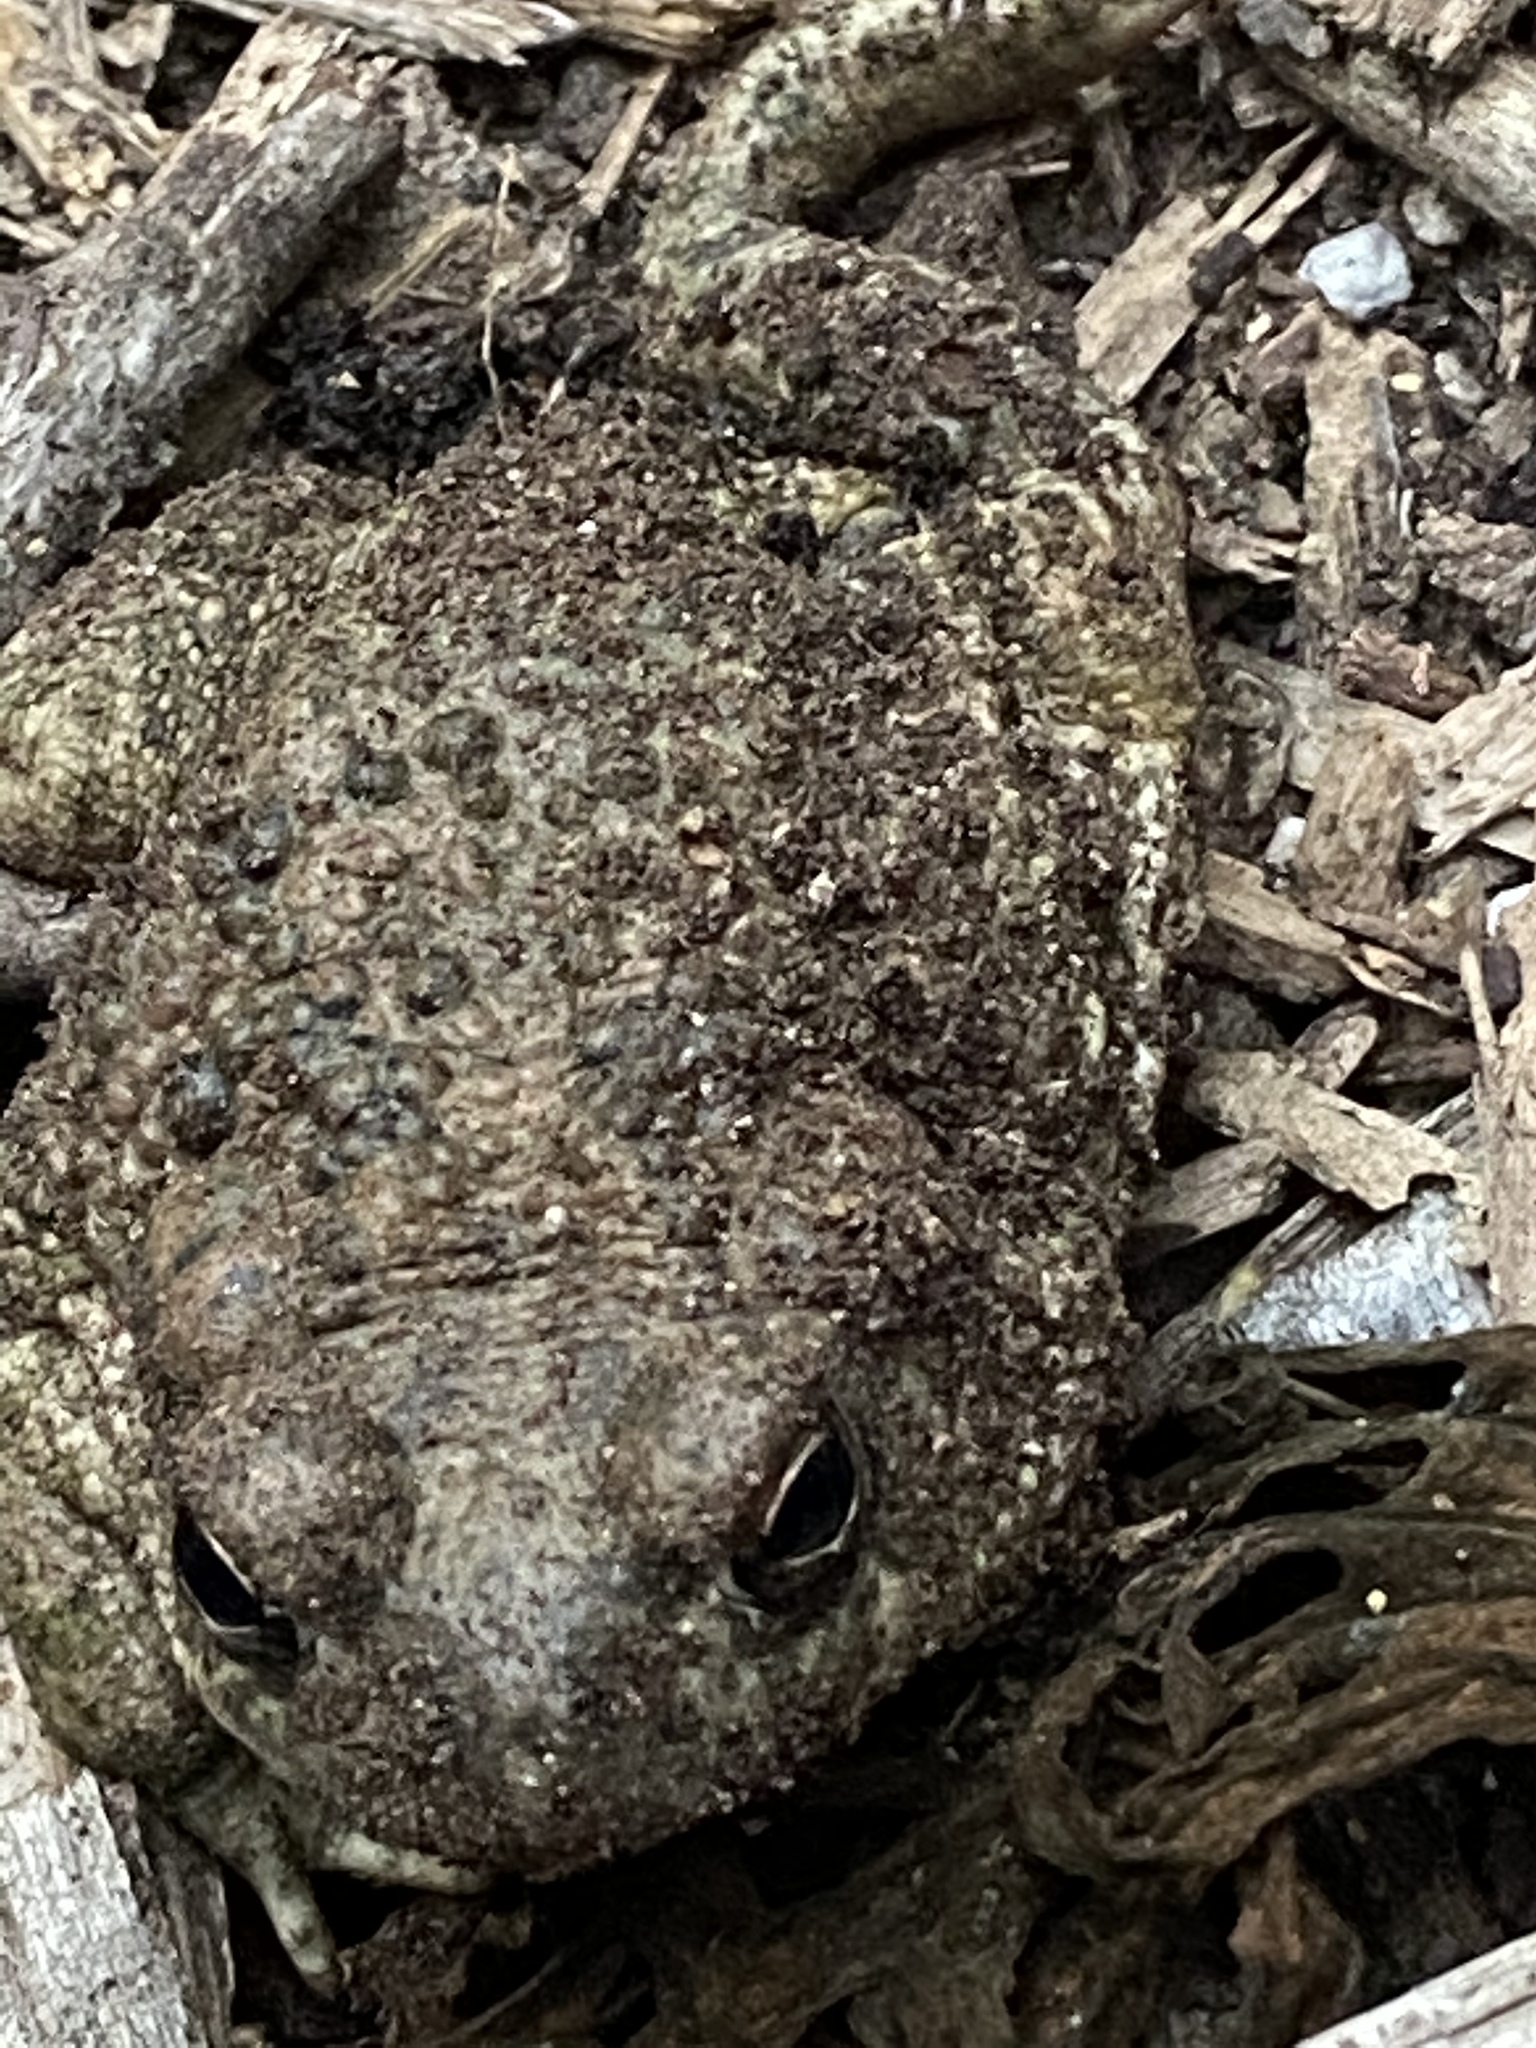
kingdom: Animalia
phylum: Chordata
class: Amphibia
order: Anura
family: Bufonidae
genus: Anaxyrus
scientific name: Anaxyrus speciosus
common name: Texas toad
